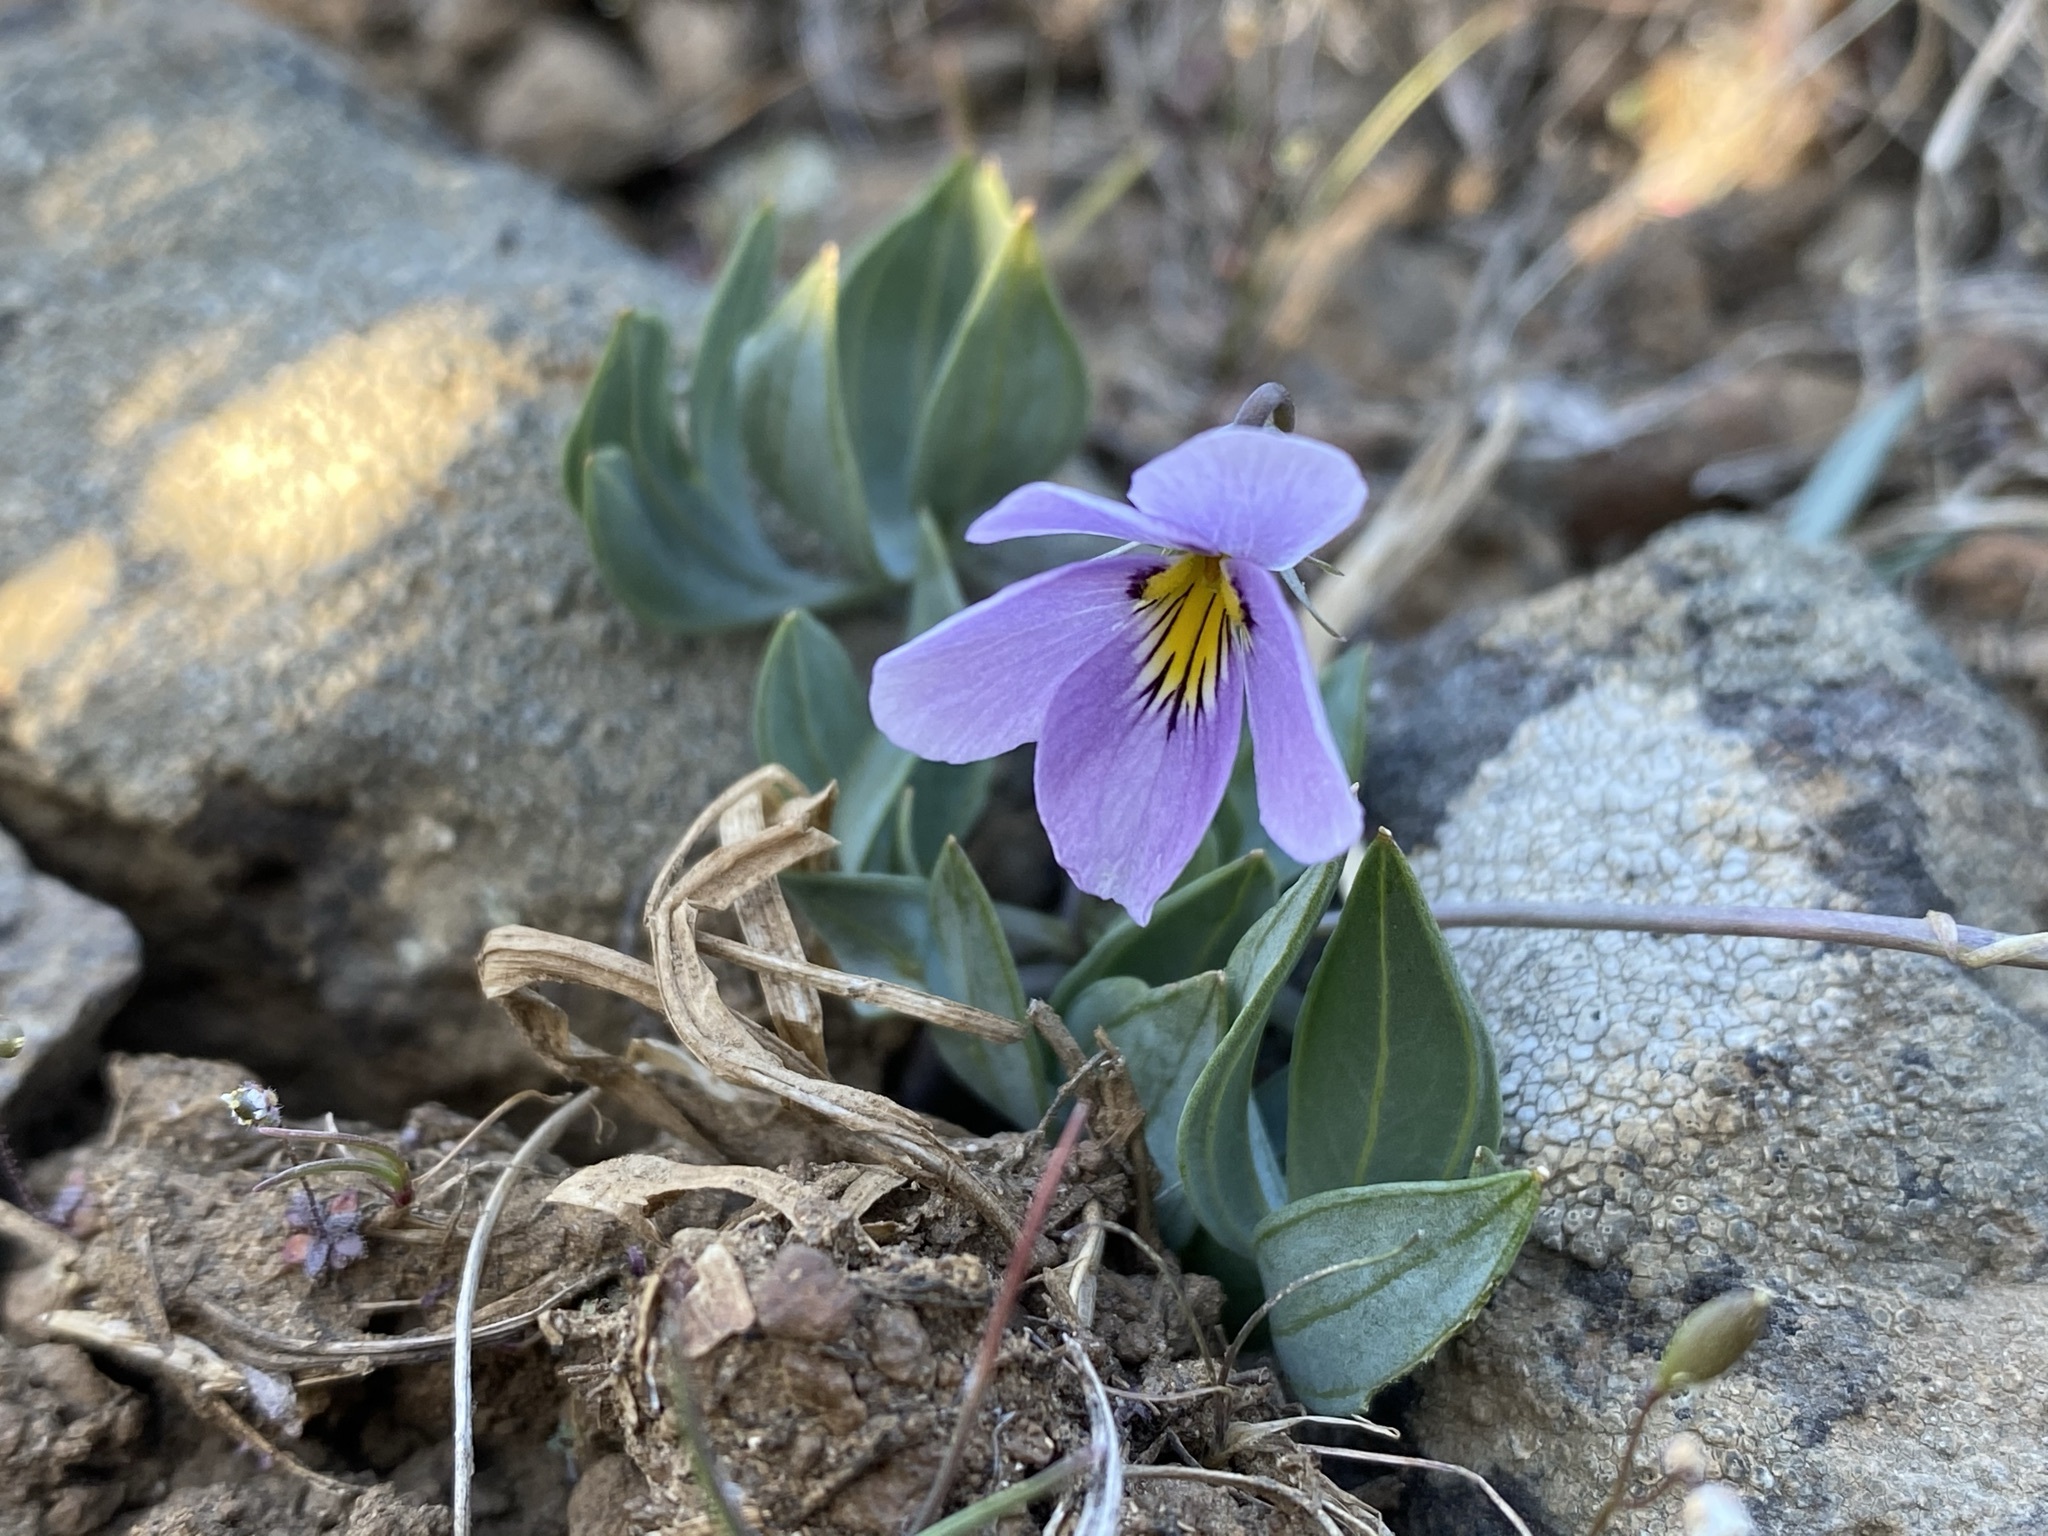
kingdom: Plantae
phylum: Tracheophyta
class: Magnoliopsida
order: Malpighiales
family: Violaceae
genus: Viola
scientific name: Viola trinervata
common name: Sagebrush violet
